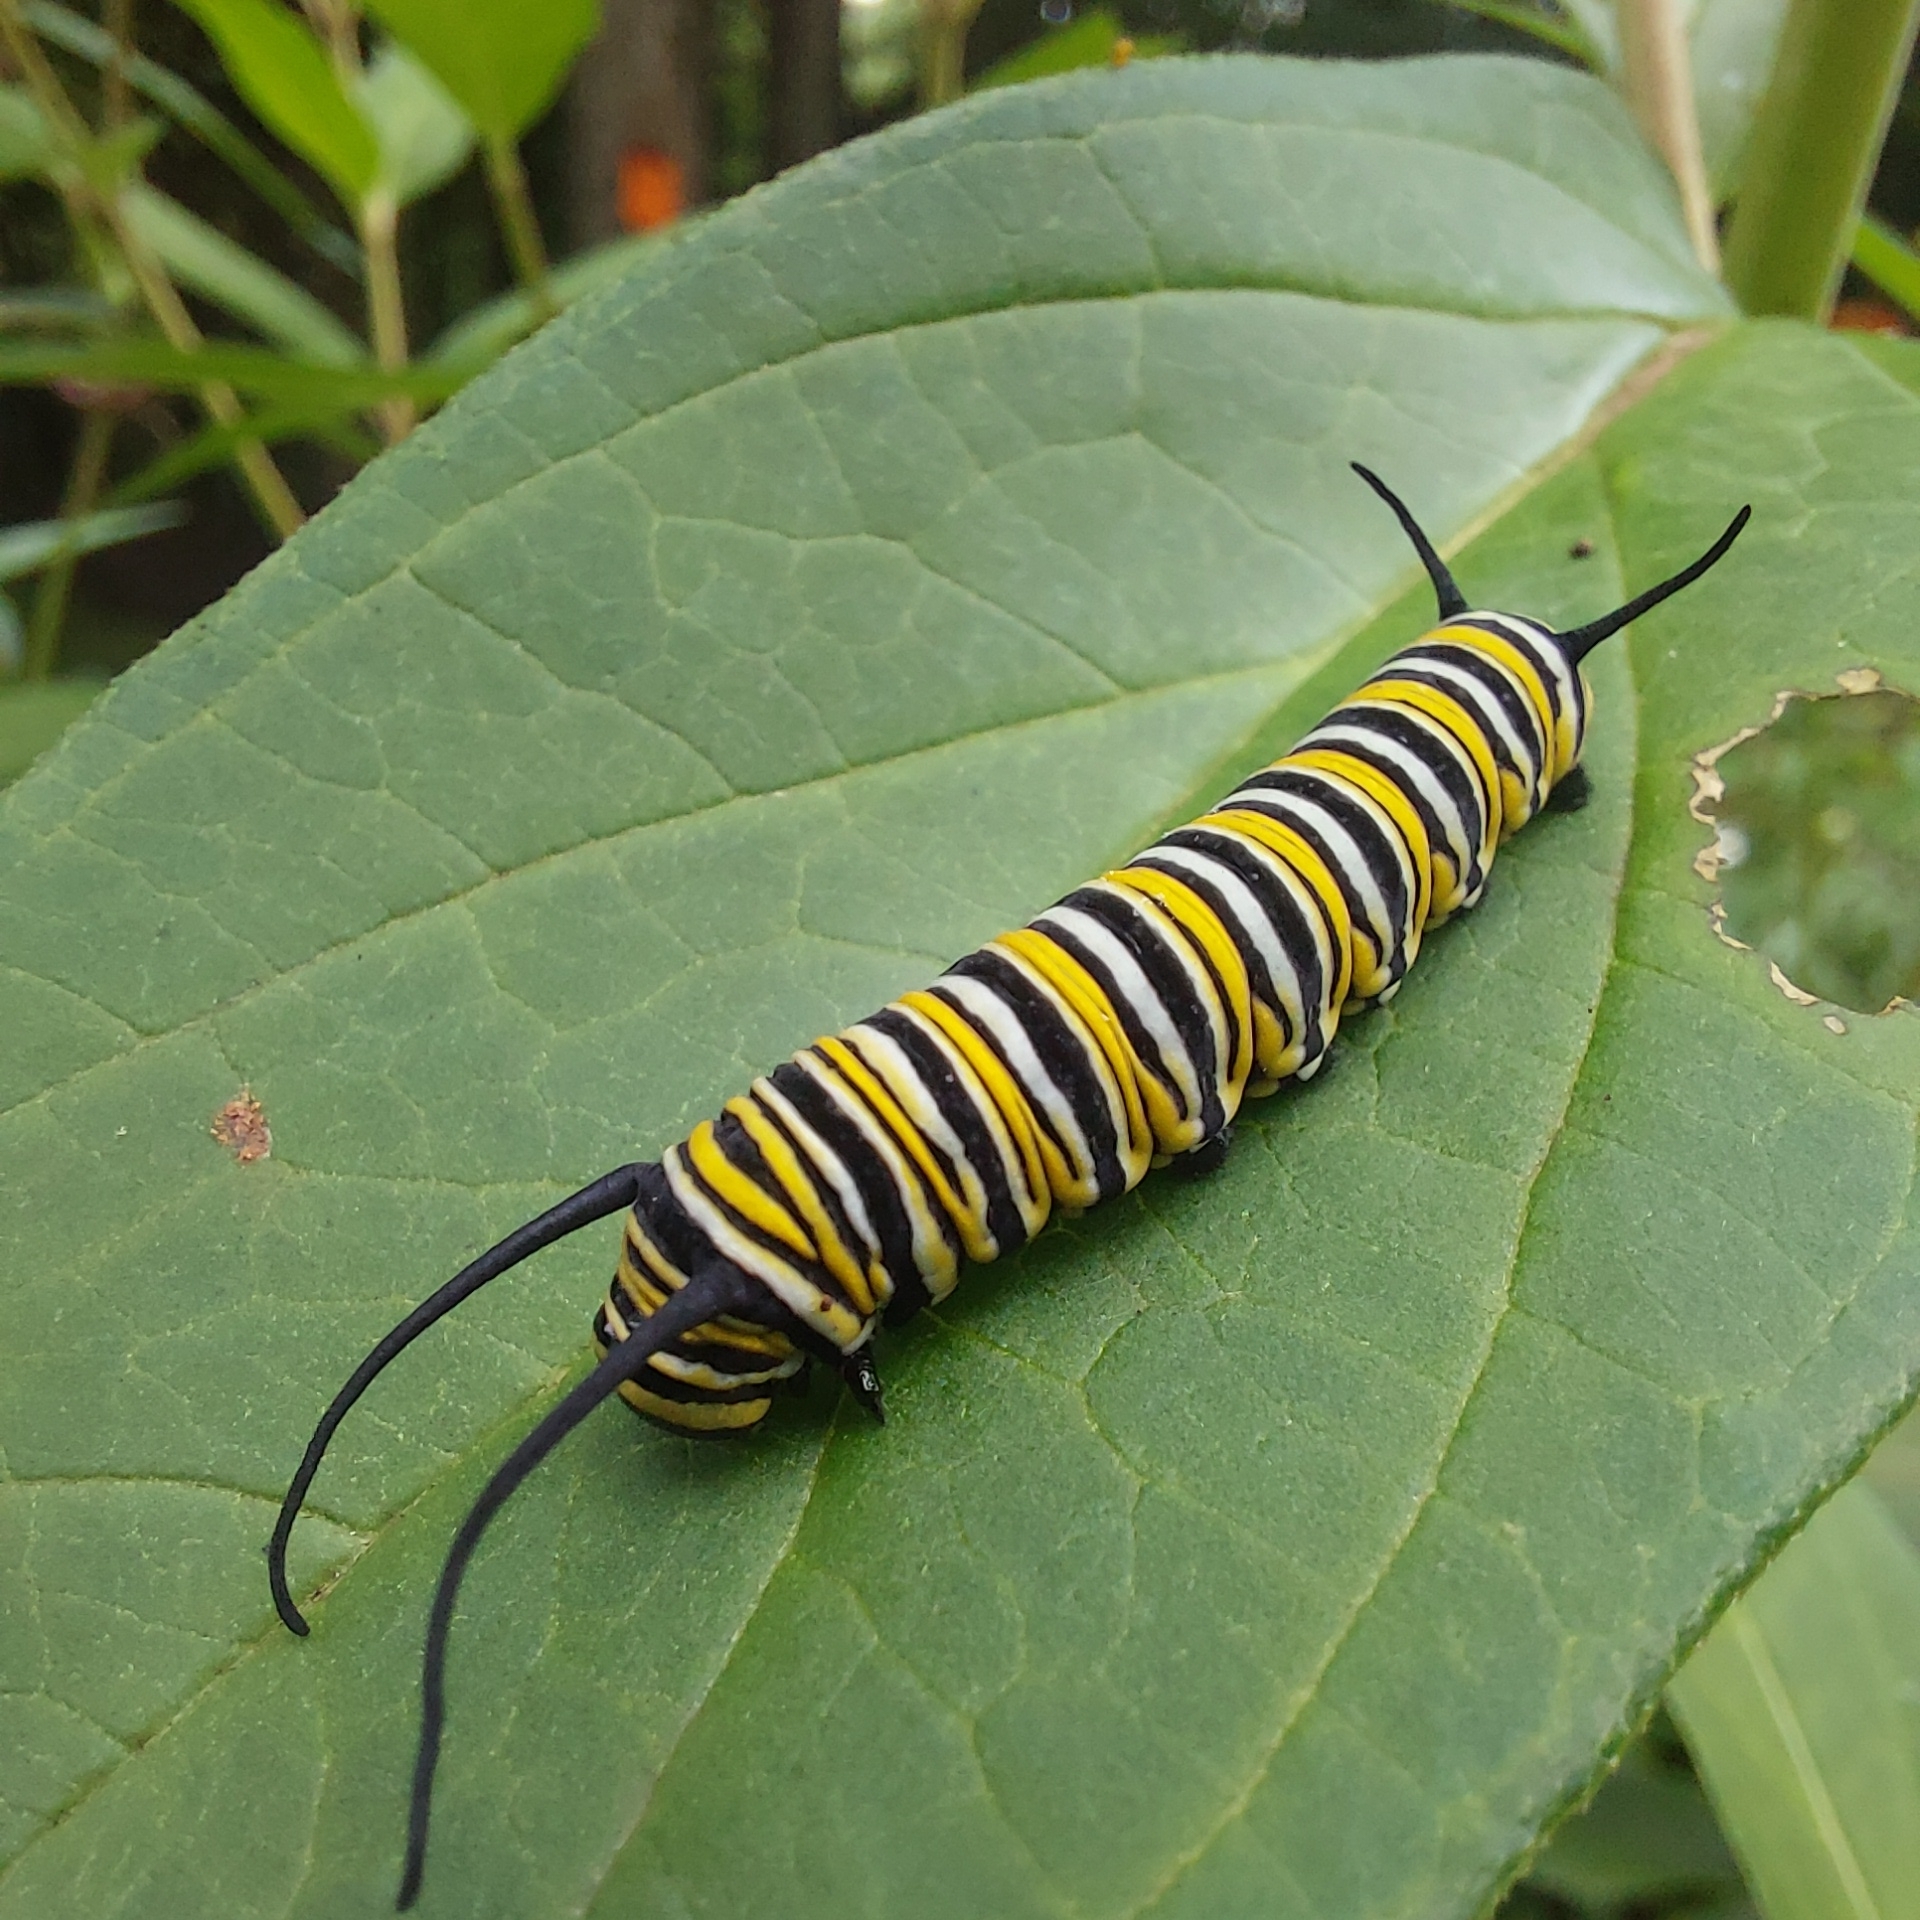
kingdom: Animalia
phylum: Arthropoda
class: Insecta
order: Lepidoptera
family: Nymphalidae
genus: Danaus
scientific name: Danaus plexippus
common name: Monarch
